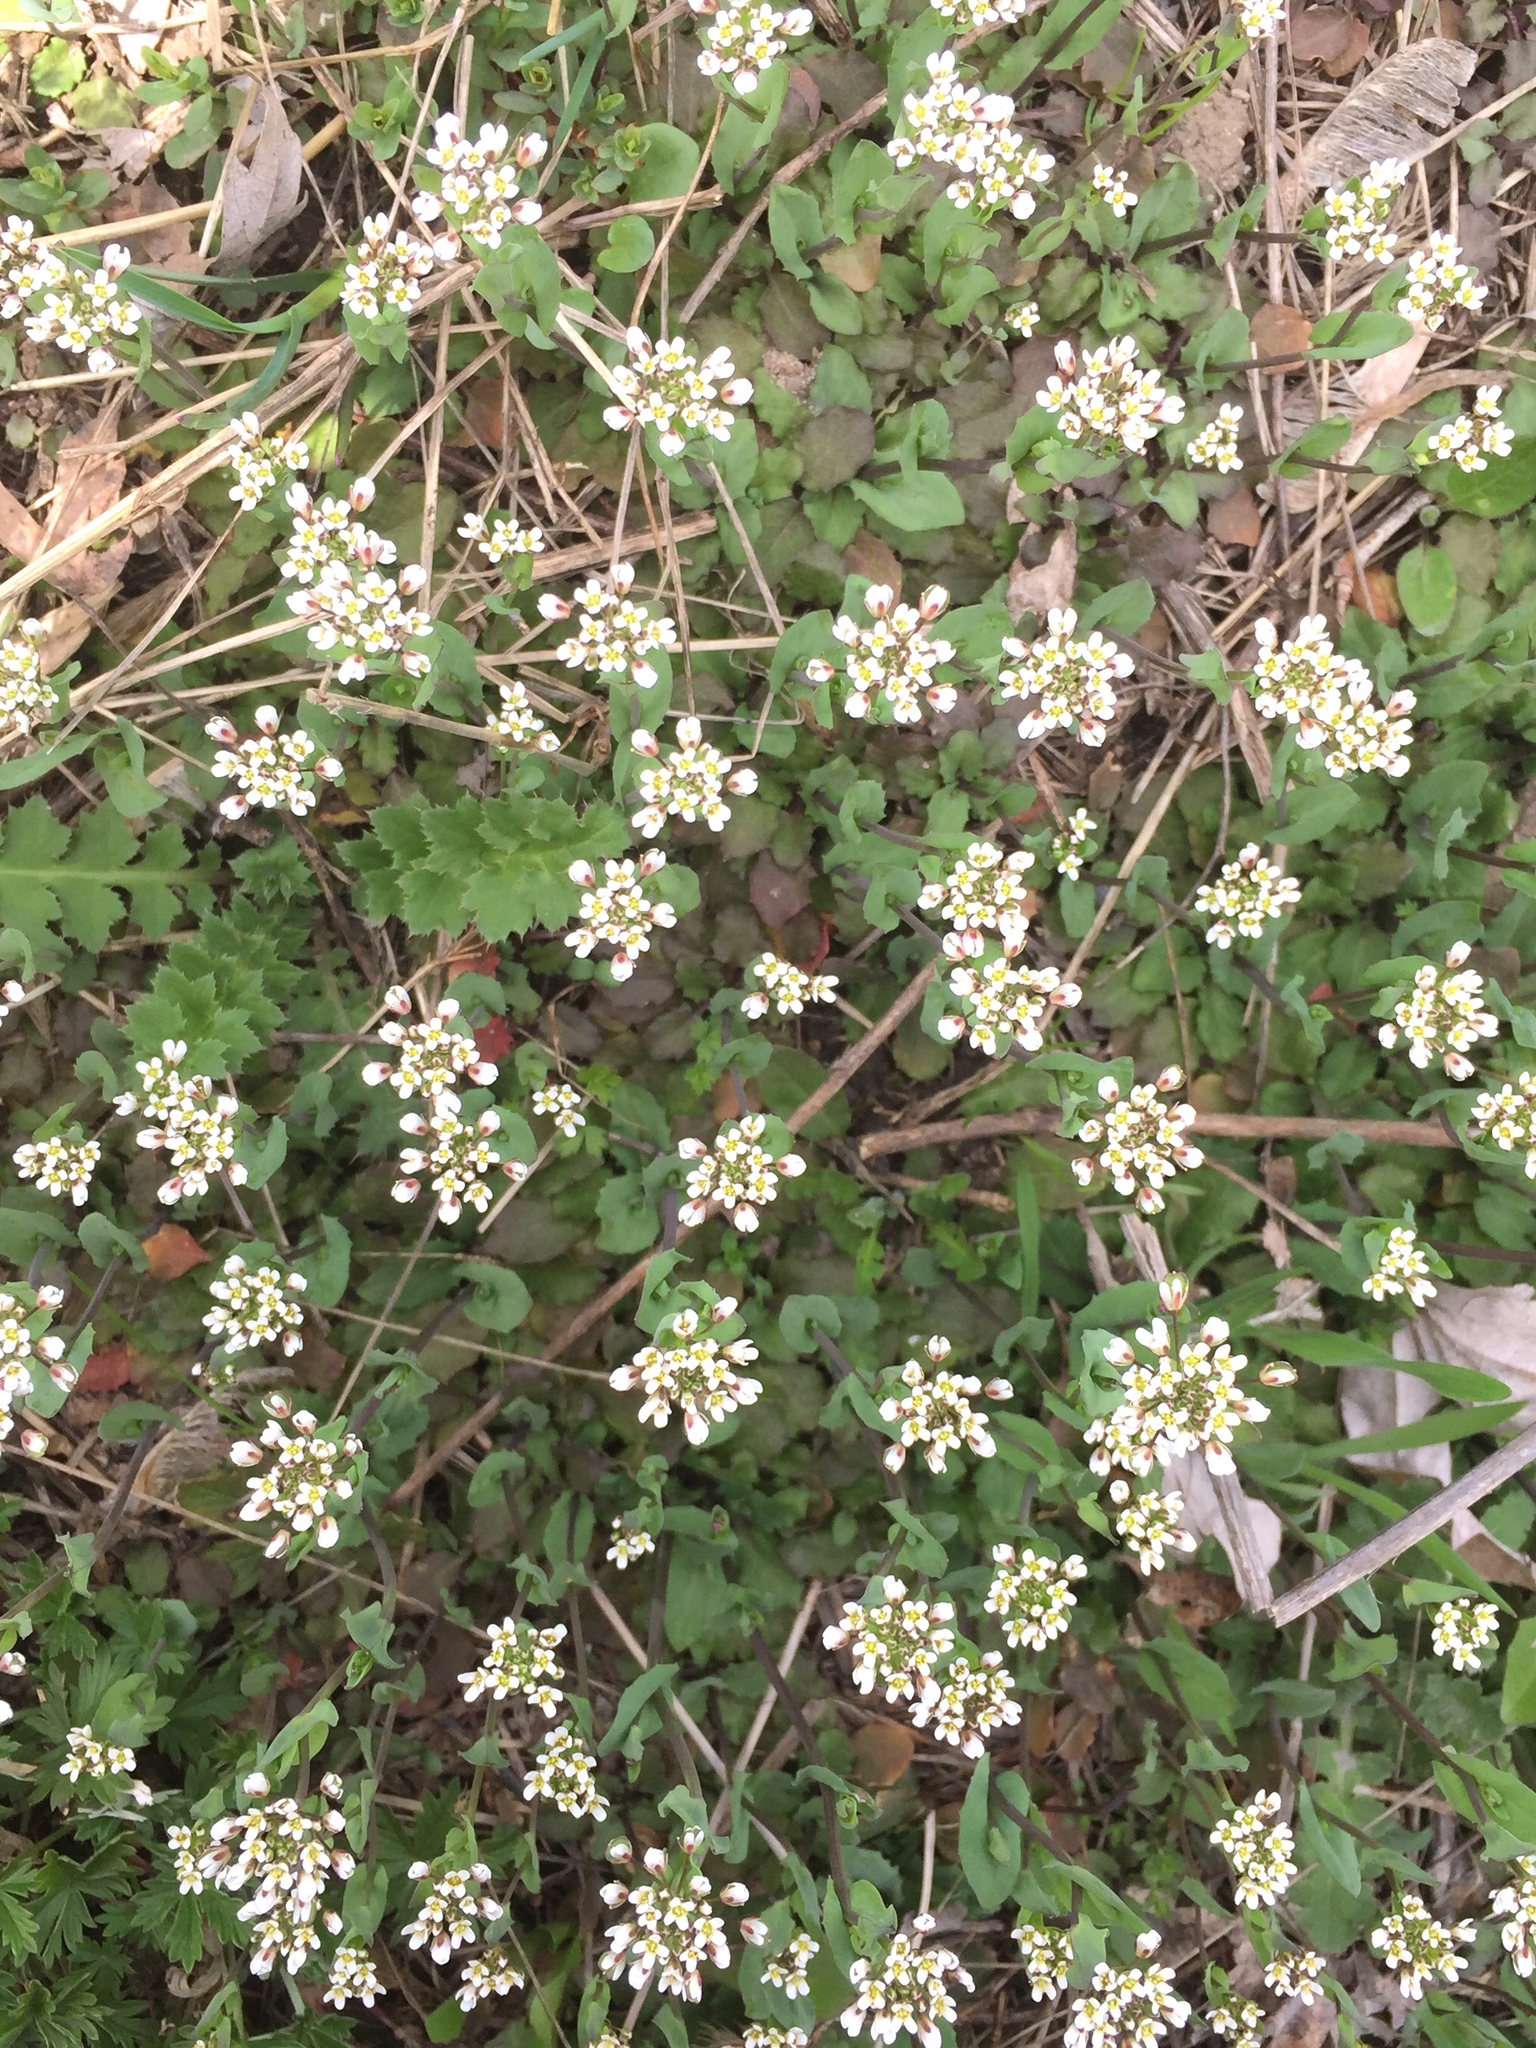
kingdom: Plantae
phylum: Tracheophyta
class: Magnoliopsida
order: Brassicales
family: Brassicaceae
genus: Capsella
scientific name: Capsella bursa-pastoris
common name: Shepherd's purse
